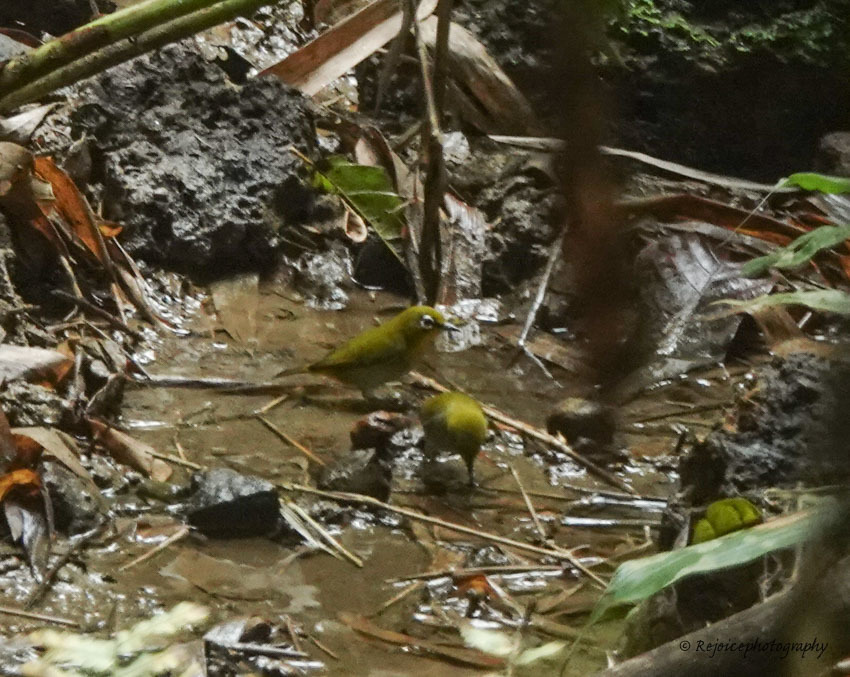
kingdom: Animalia
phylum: Chordata
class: Aves
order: Passeriformes
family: Zosteropidae
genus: Zosterops
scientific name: Zosterops palpebrosus
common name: Oriental white-eye
